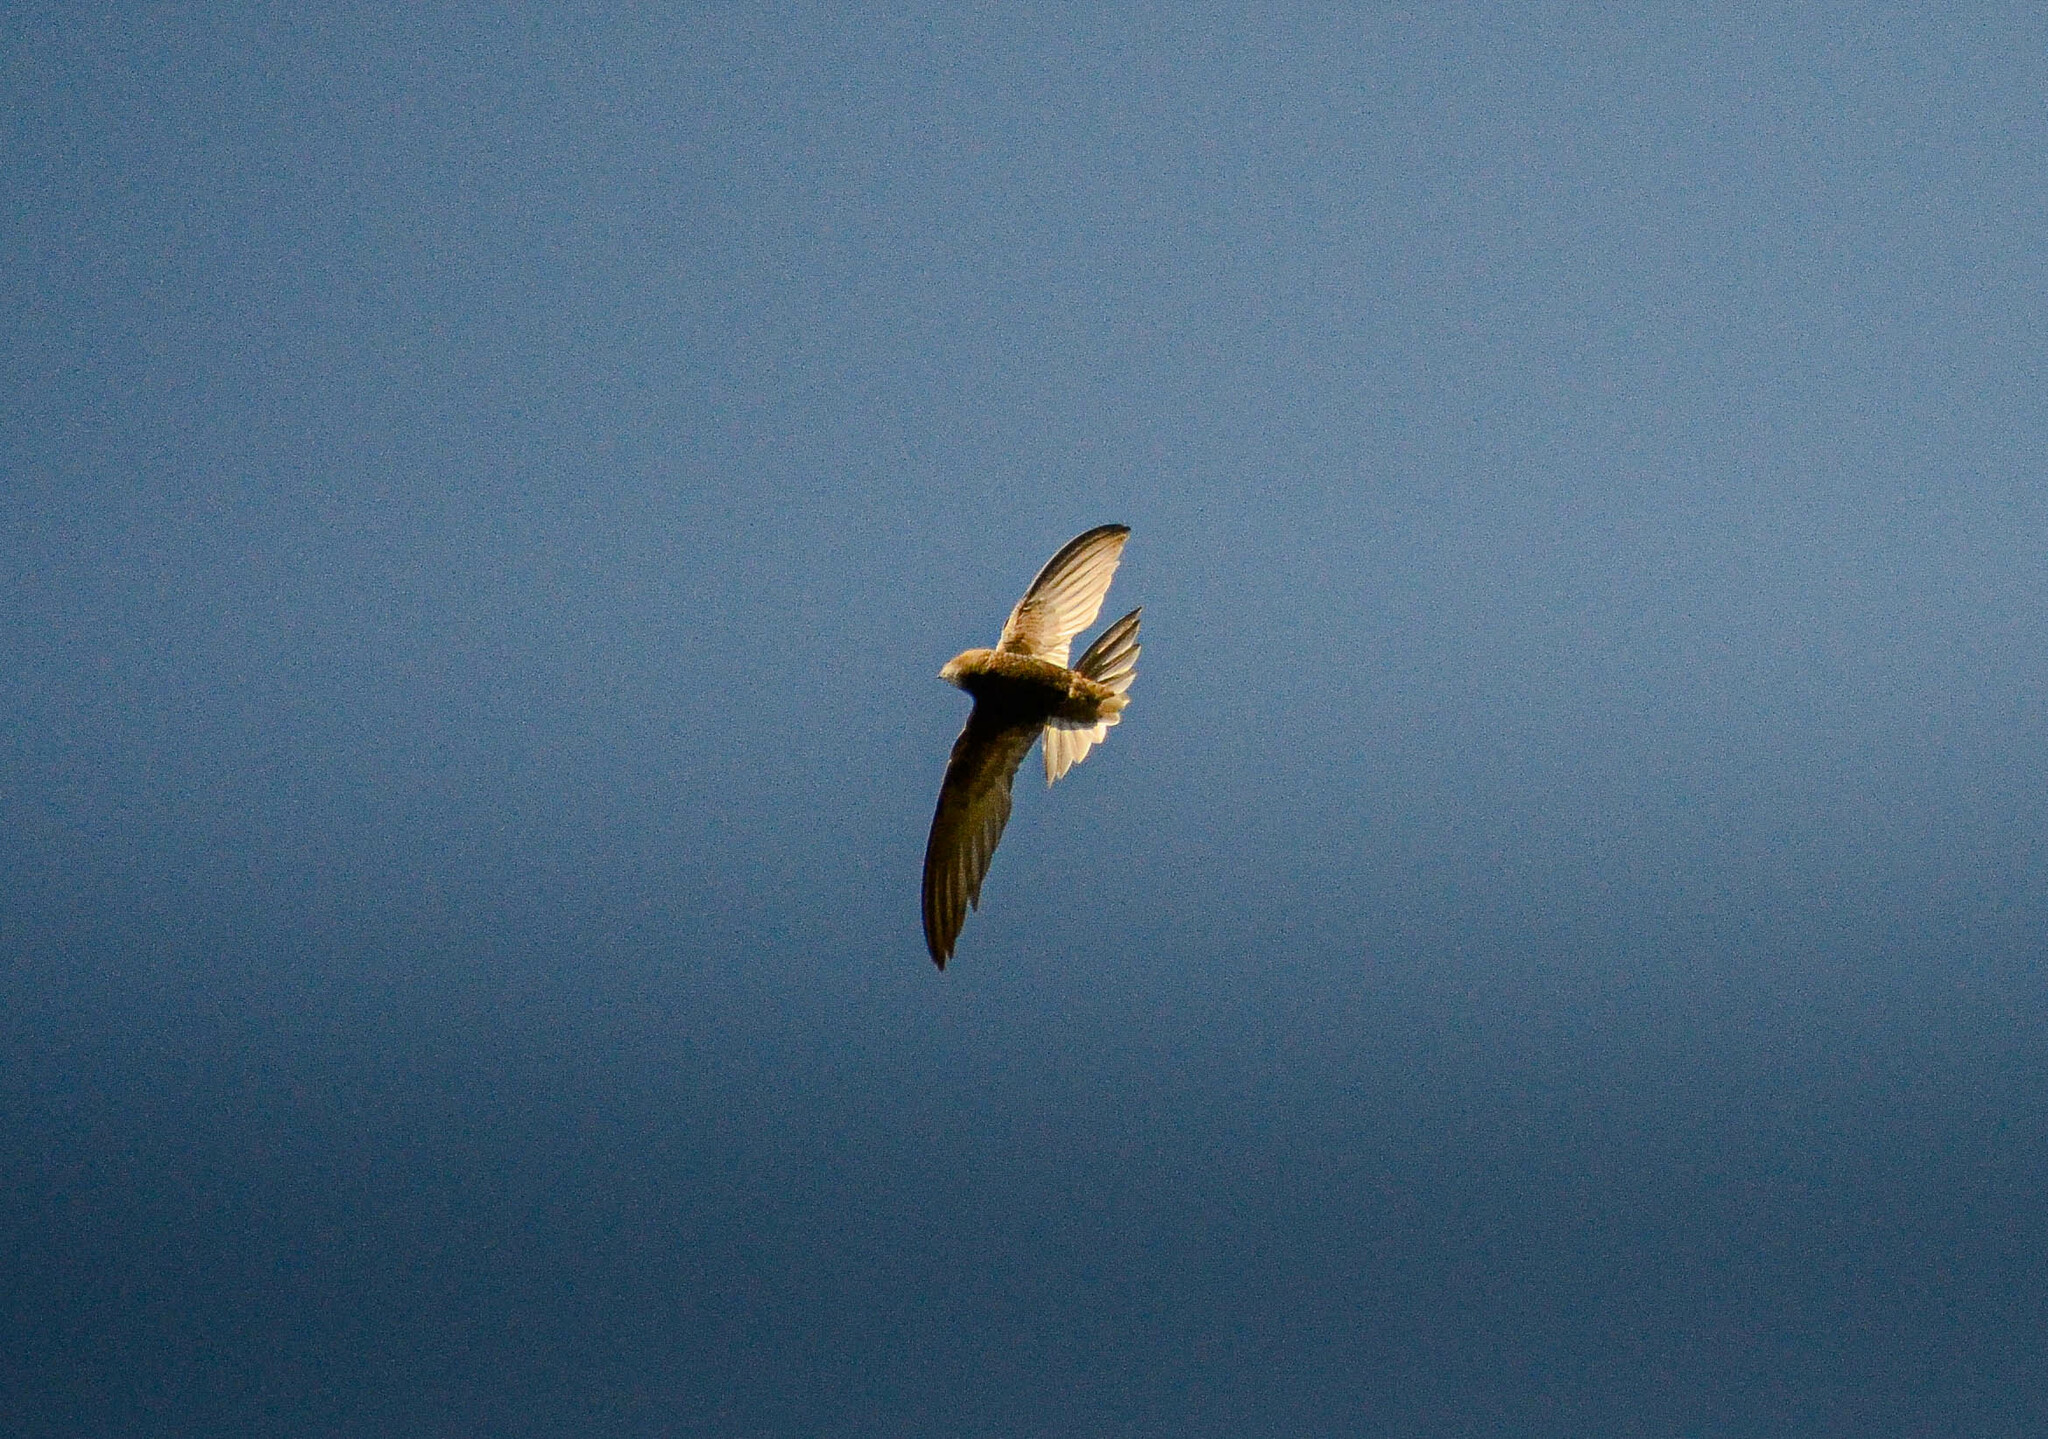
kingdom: Animalia
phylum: Chordata
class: Aves
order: Apodiformes
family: Apodidae
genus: Apus
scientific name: Apus apus
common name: Common swift
